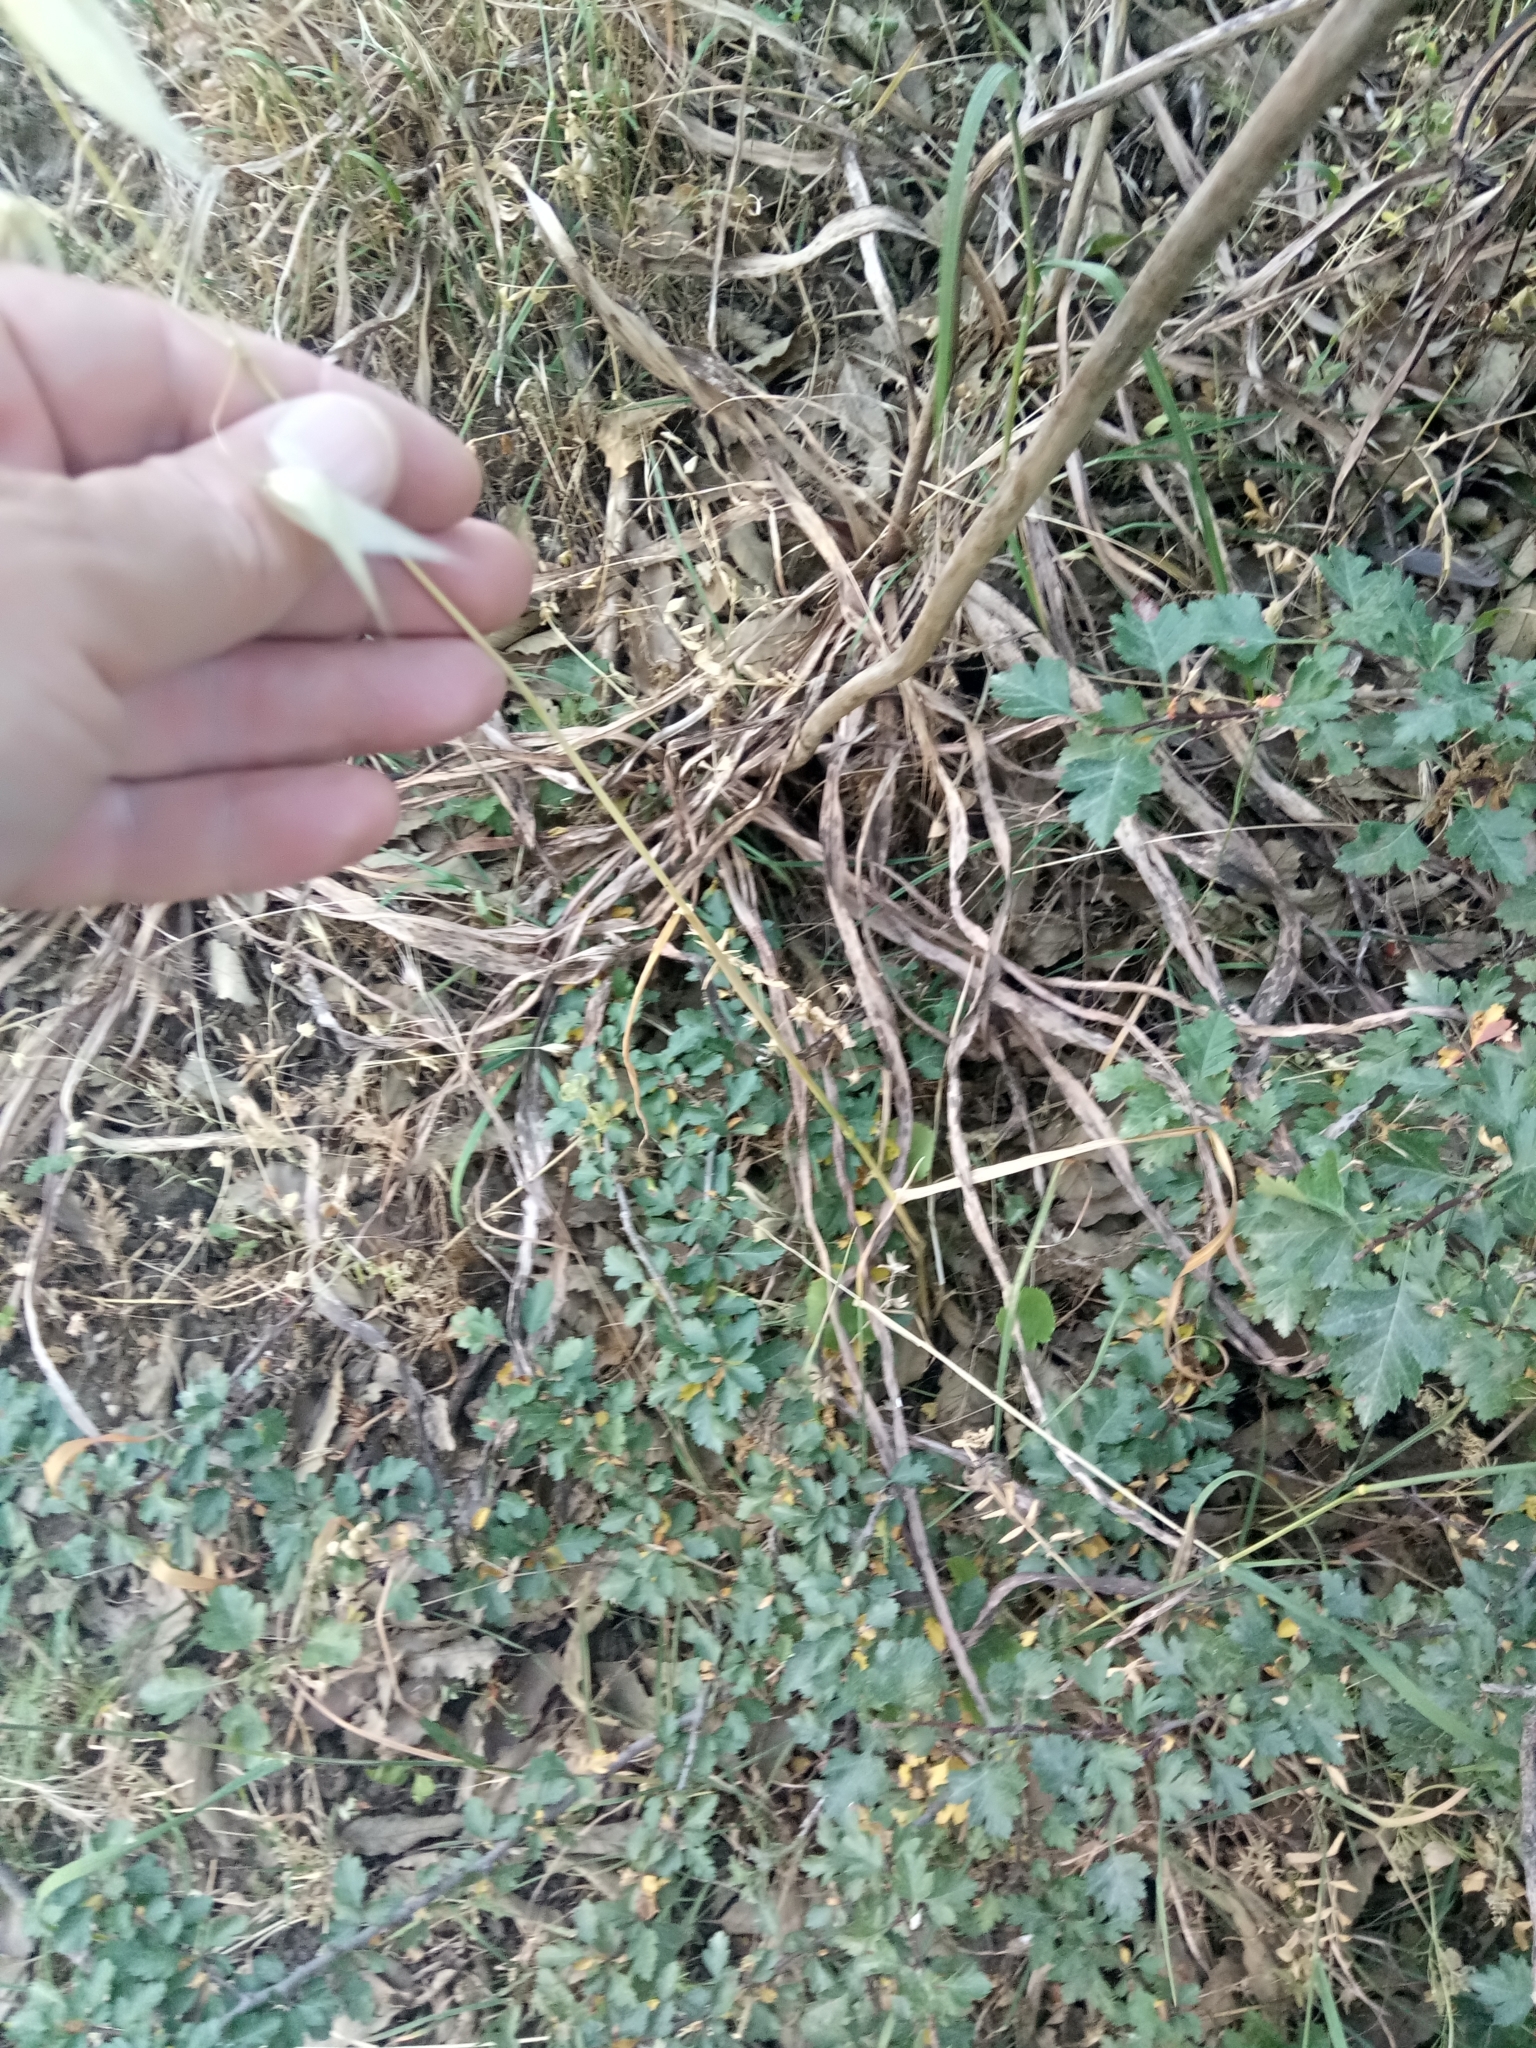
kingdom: Plantae
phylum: Tracheophyta
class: Liliopsida
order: Poales
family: Poaceae
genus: Avena
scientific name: Avena sterilis
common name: Animated oat
